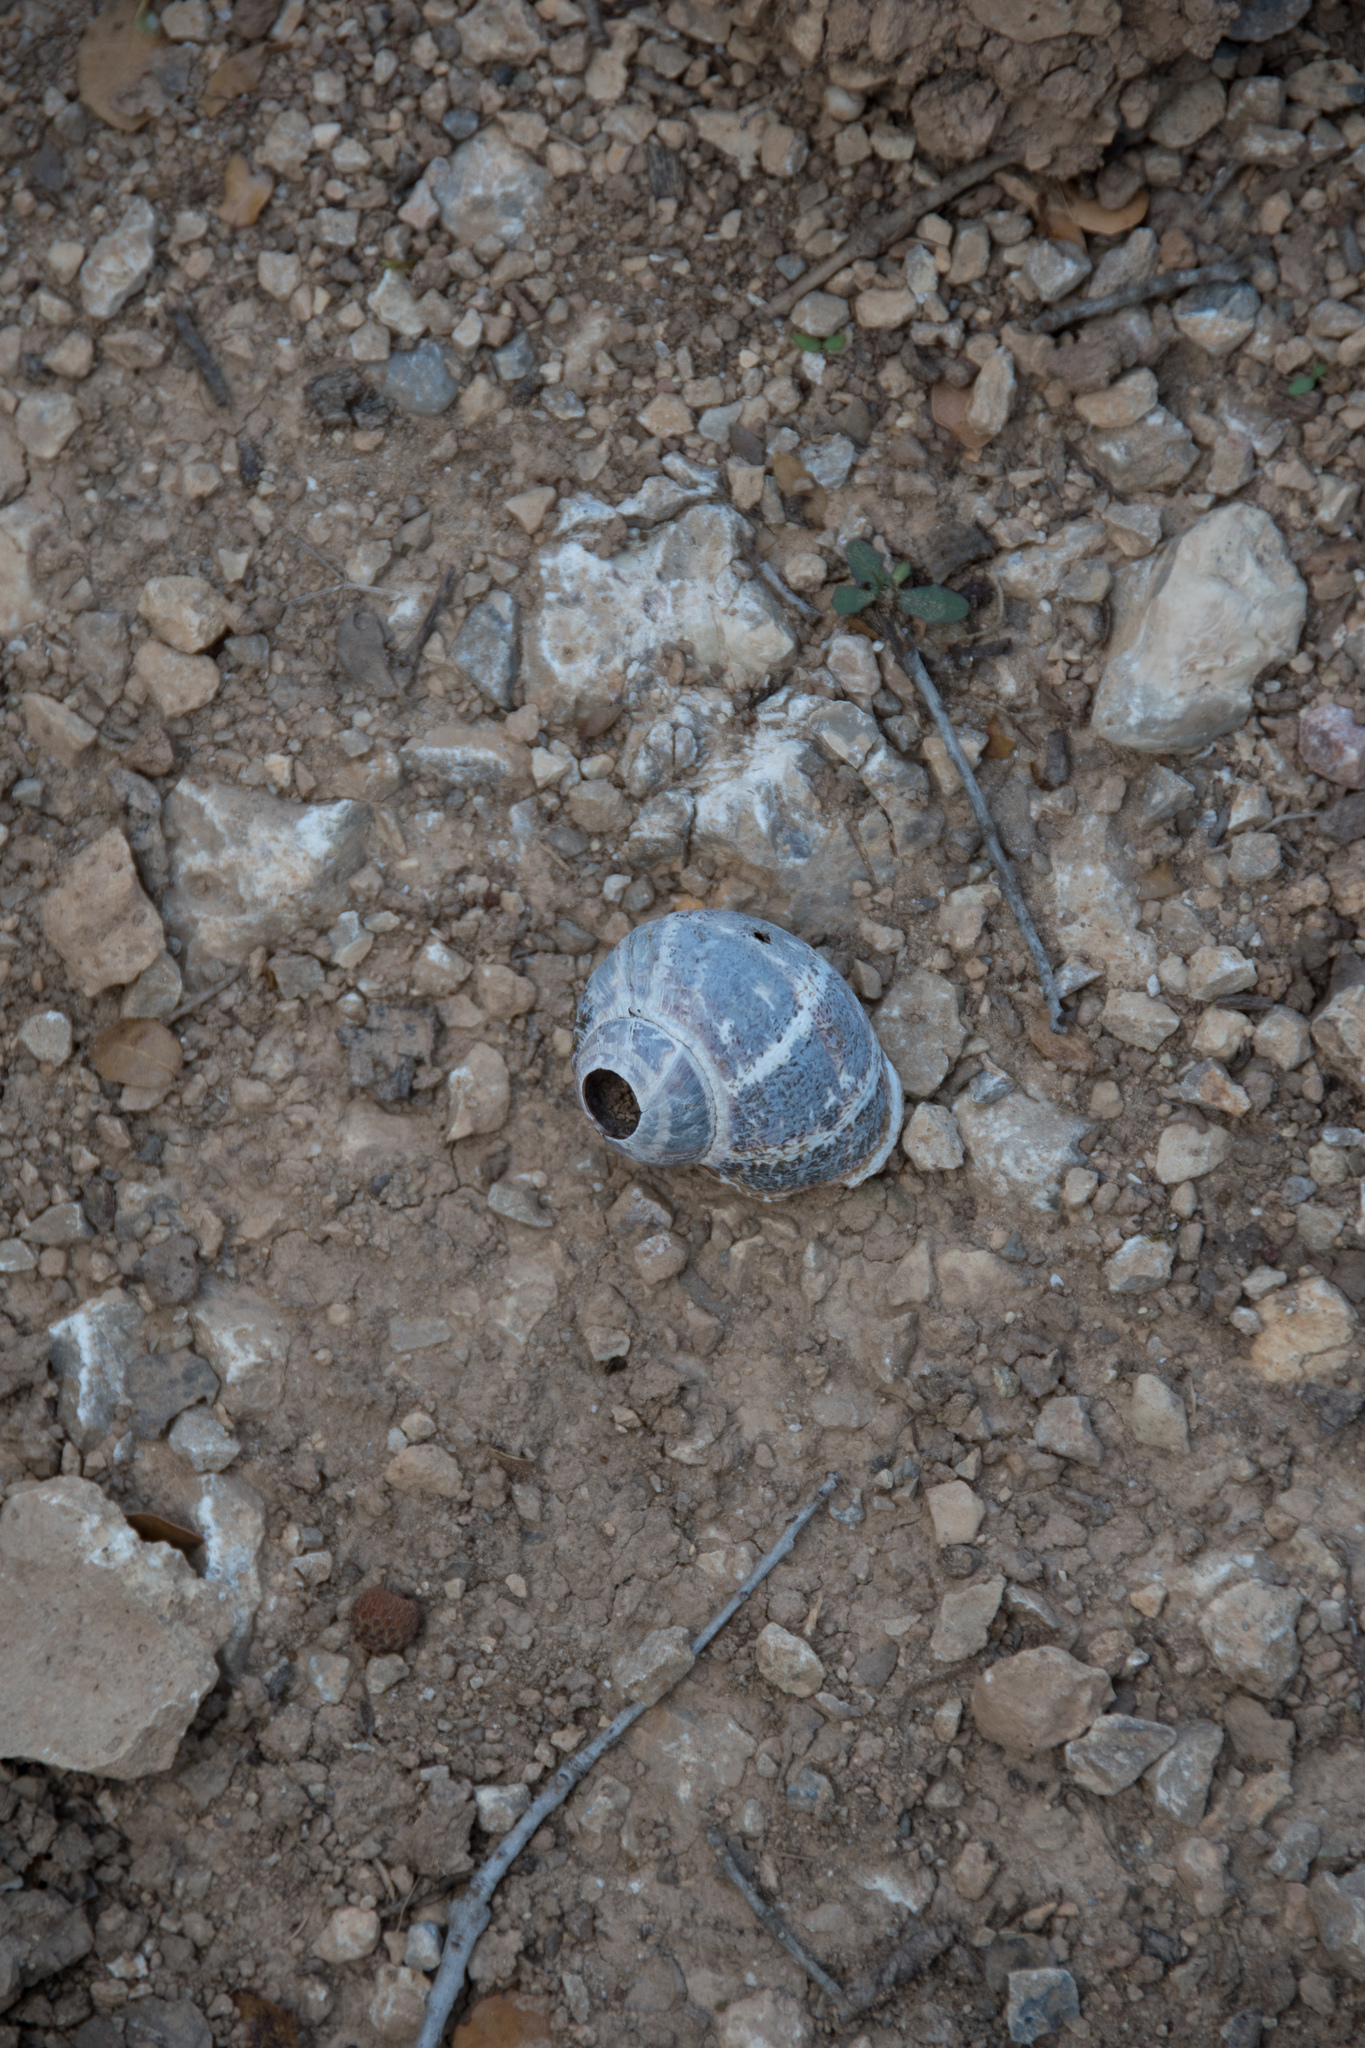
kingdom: Animalia
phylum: Mollusca
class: Gastropoda
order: Stylommatophora
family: Helicidae
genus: Cornu
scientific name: Cornu aspersum
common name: Brown garden snail
